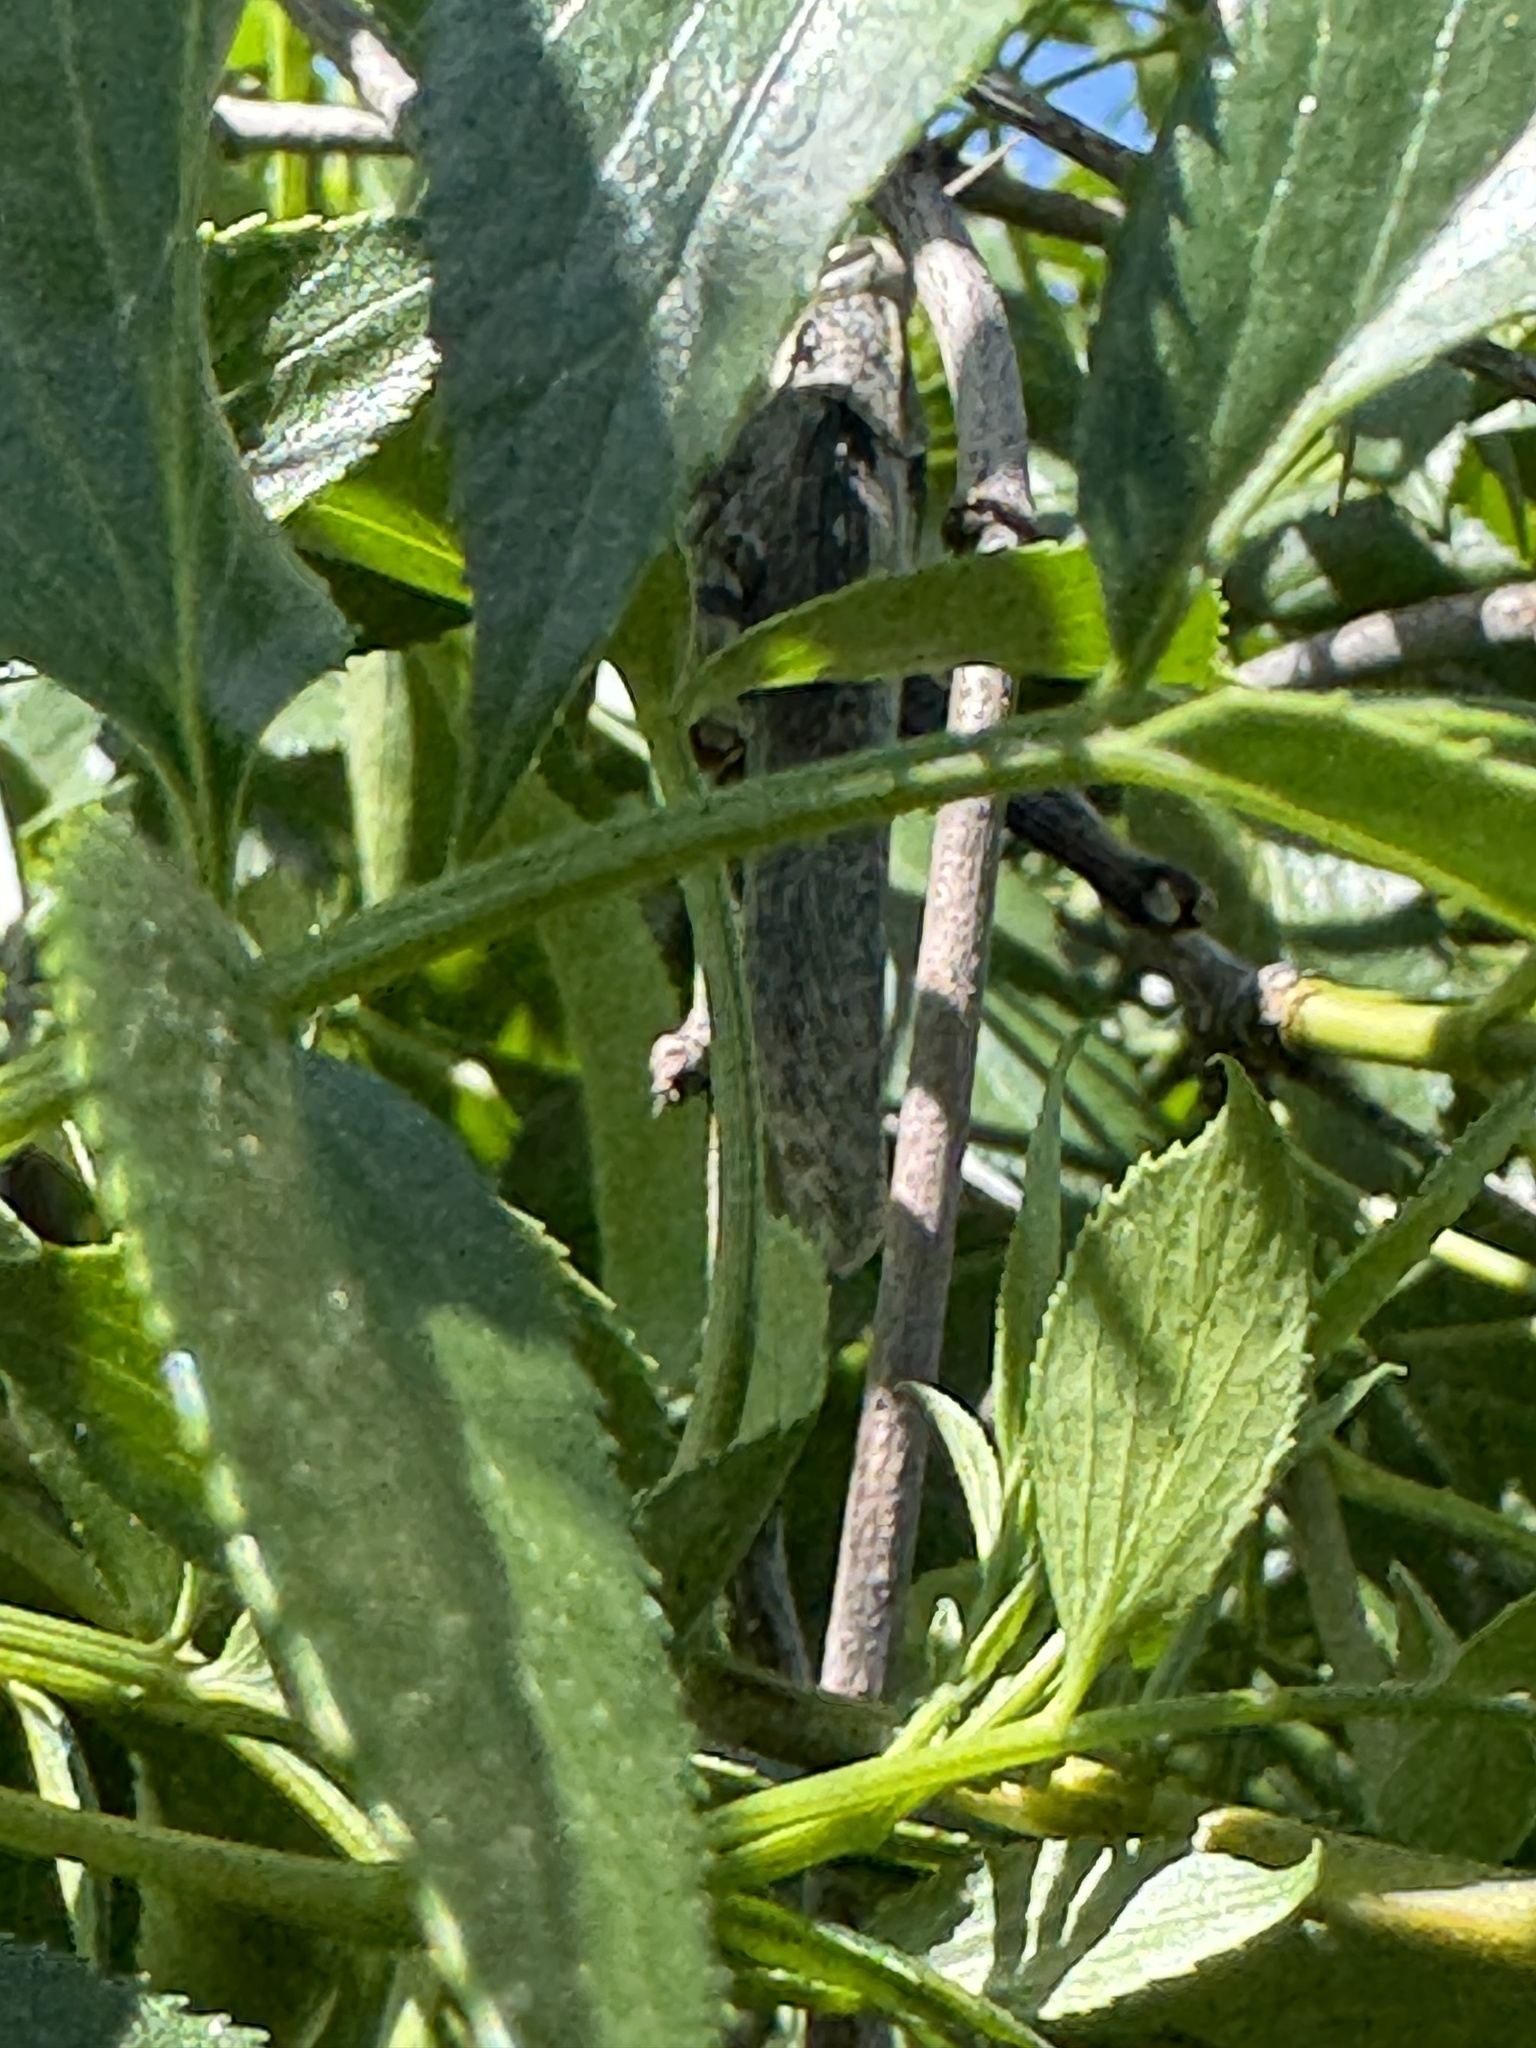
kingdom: Animalia
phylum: Arthropoda
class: Insecta
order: Orthoptera
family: Acrididae
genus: Schistocerca
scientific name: Schistocerca nitens
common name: Vagrant grasshopper
